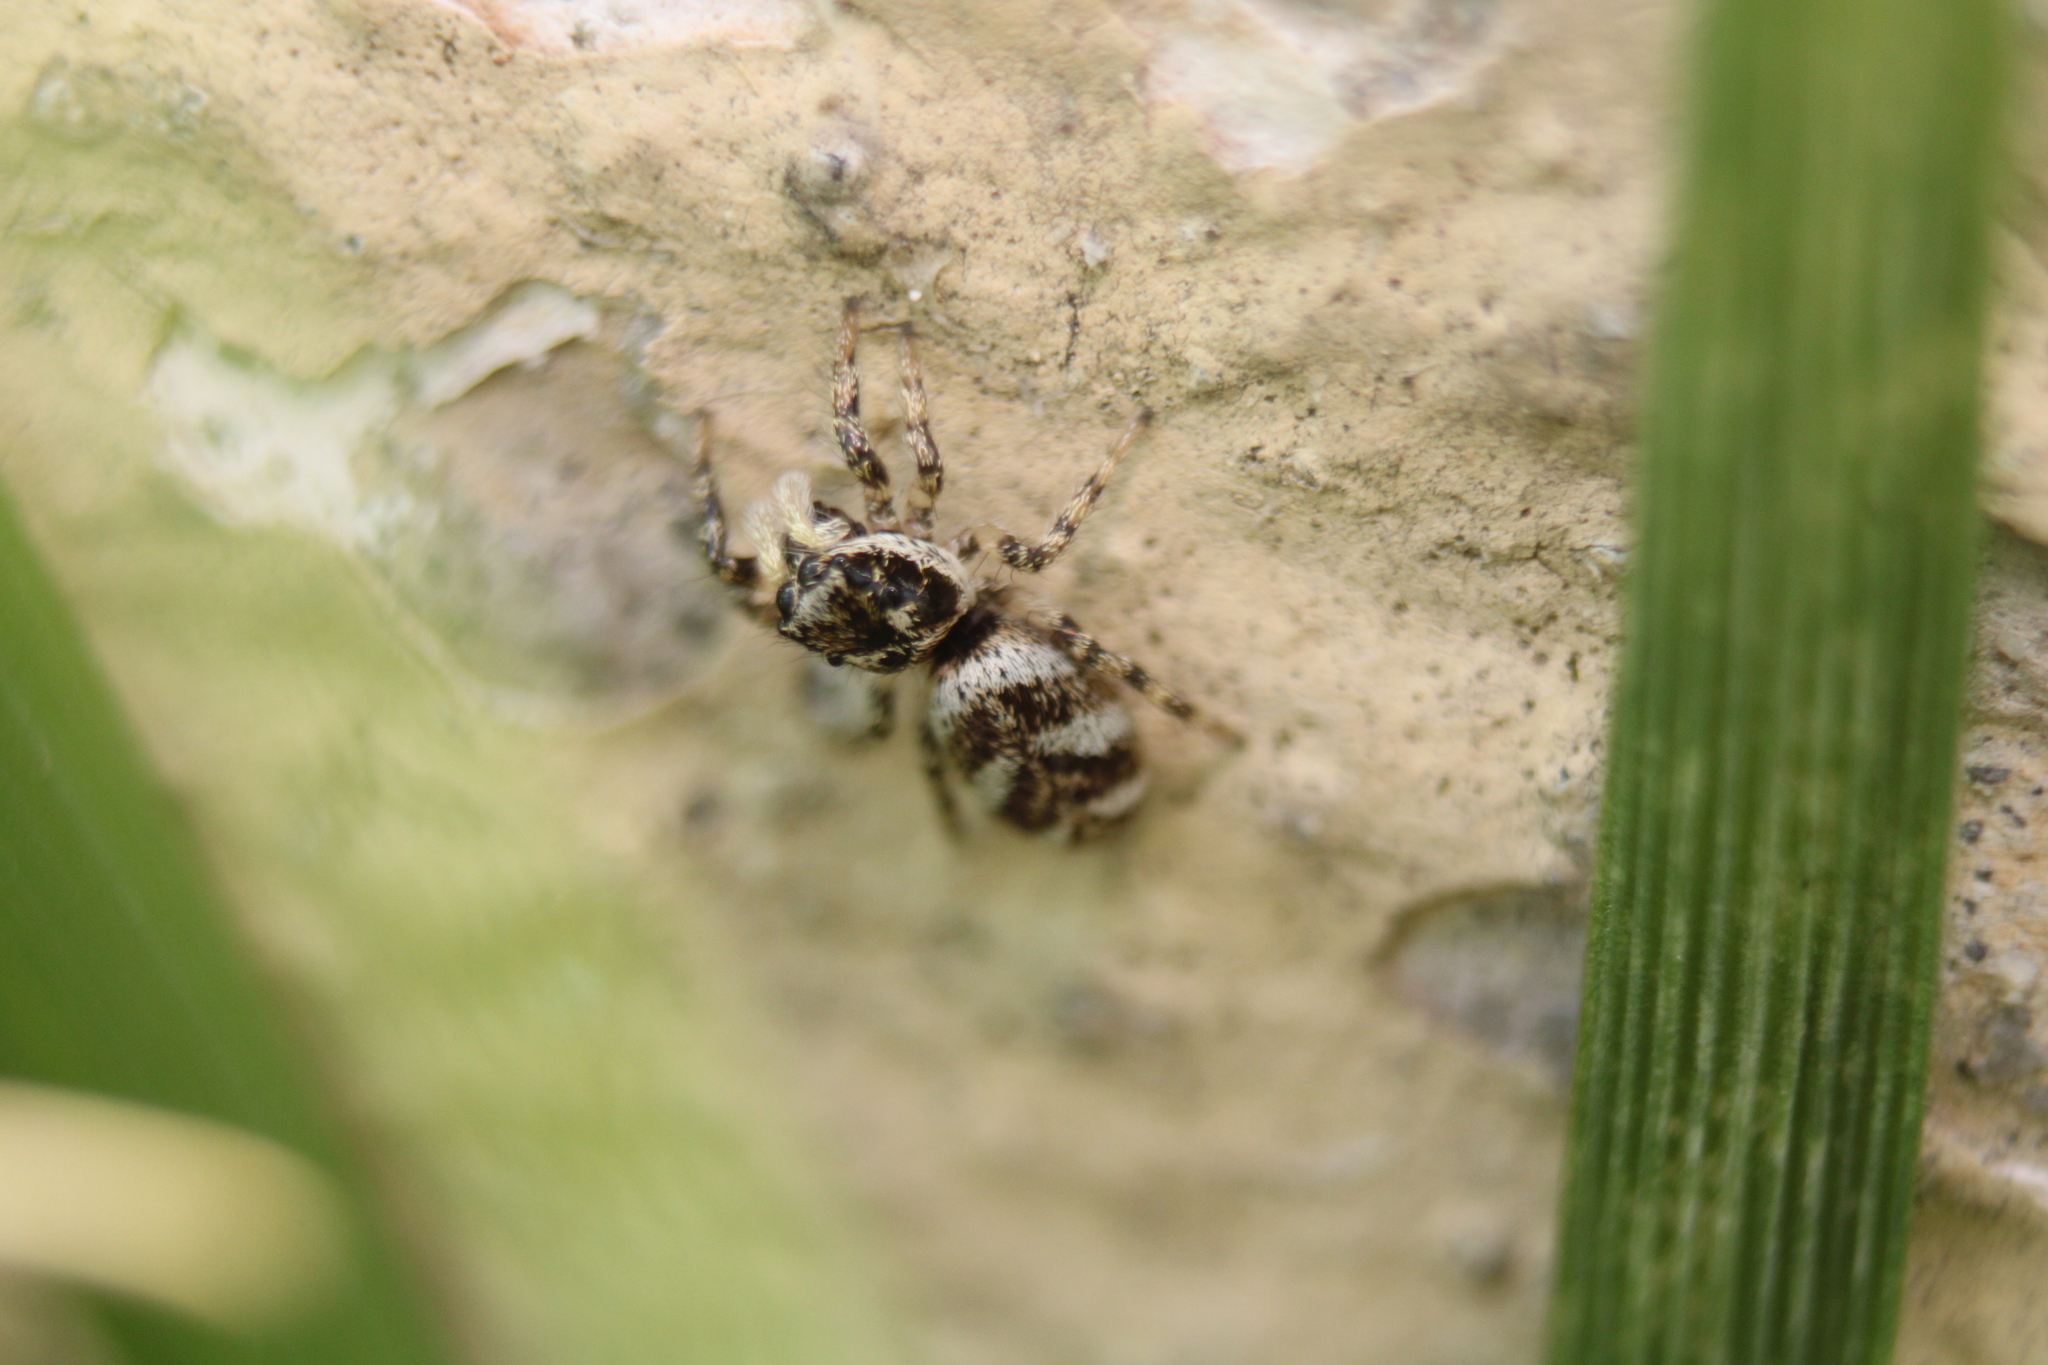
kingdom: Animalia
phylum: Arthropoda
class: Arachnida
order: Araneae
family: Salticidae
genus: Salticus
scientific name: Salticus scenicus
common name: Zebra jumper
